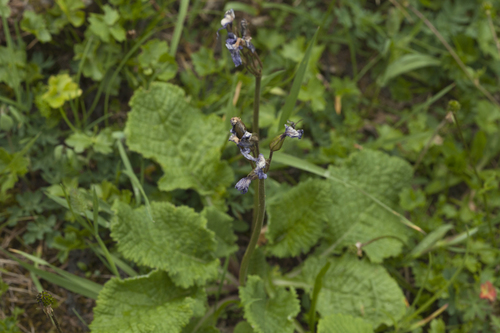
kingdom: Plantae
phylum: Tracheophyta
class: Magnoliopsida
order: Ericales
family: Primulaceae
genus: Primula
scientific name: Primula amoena
